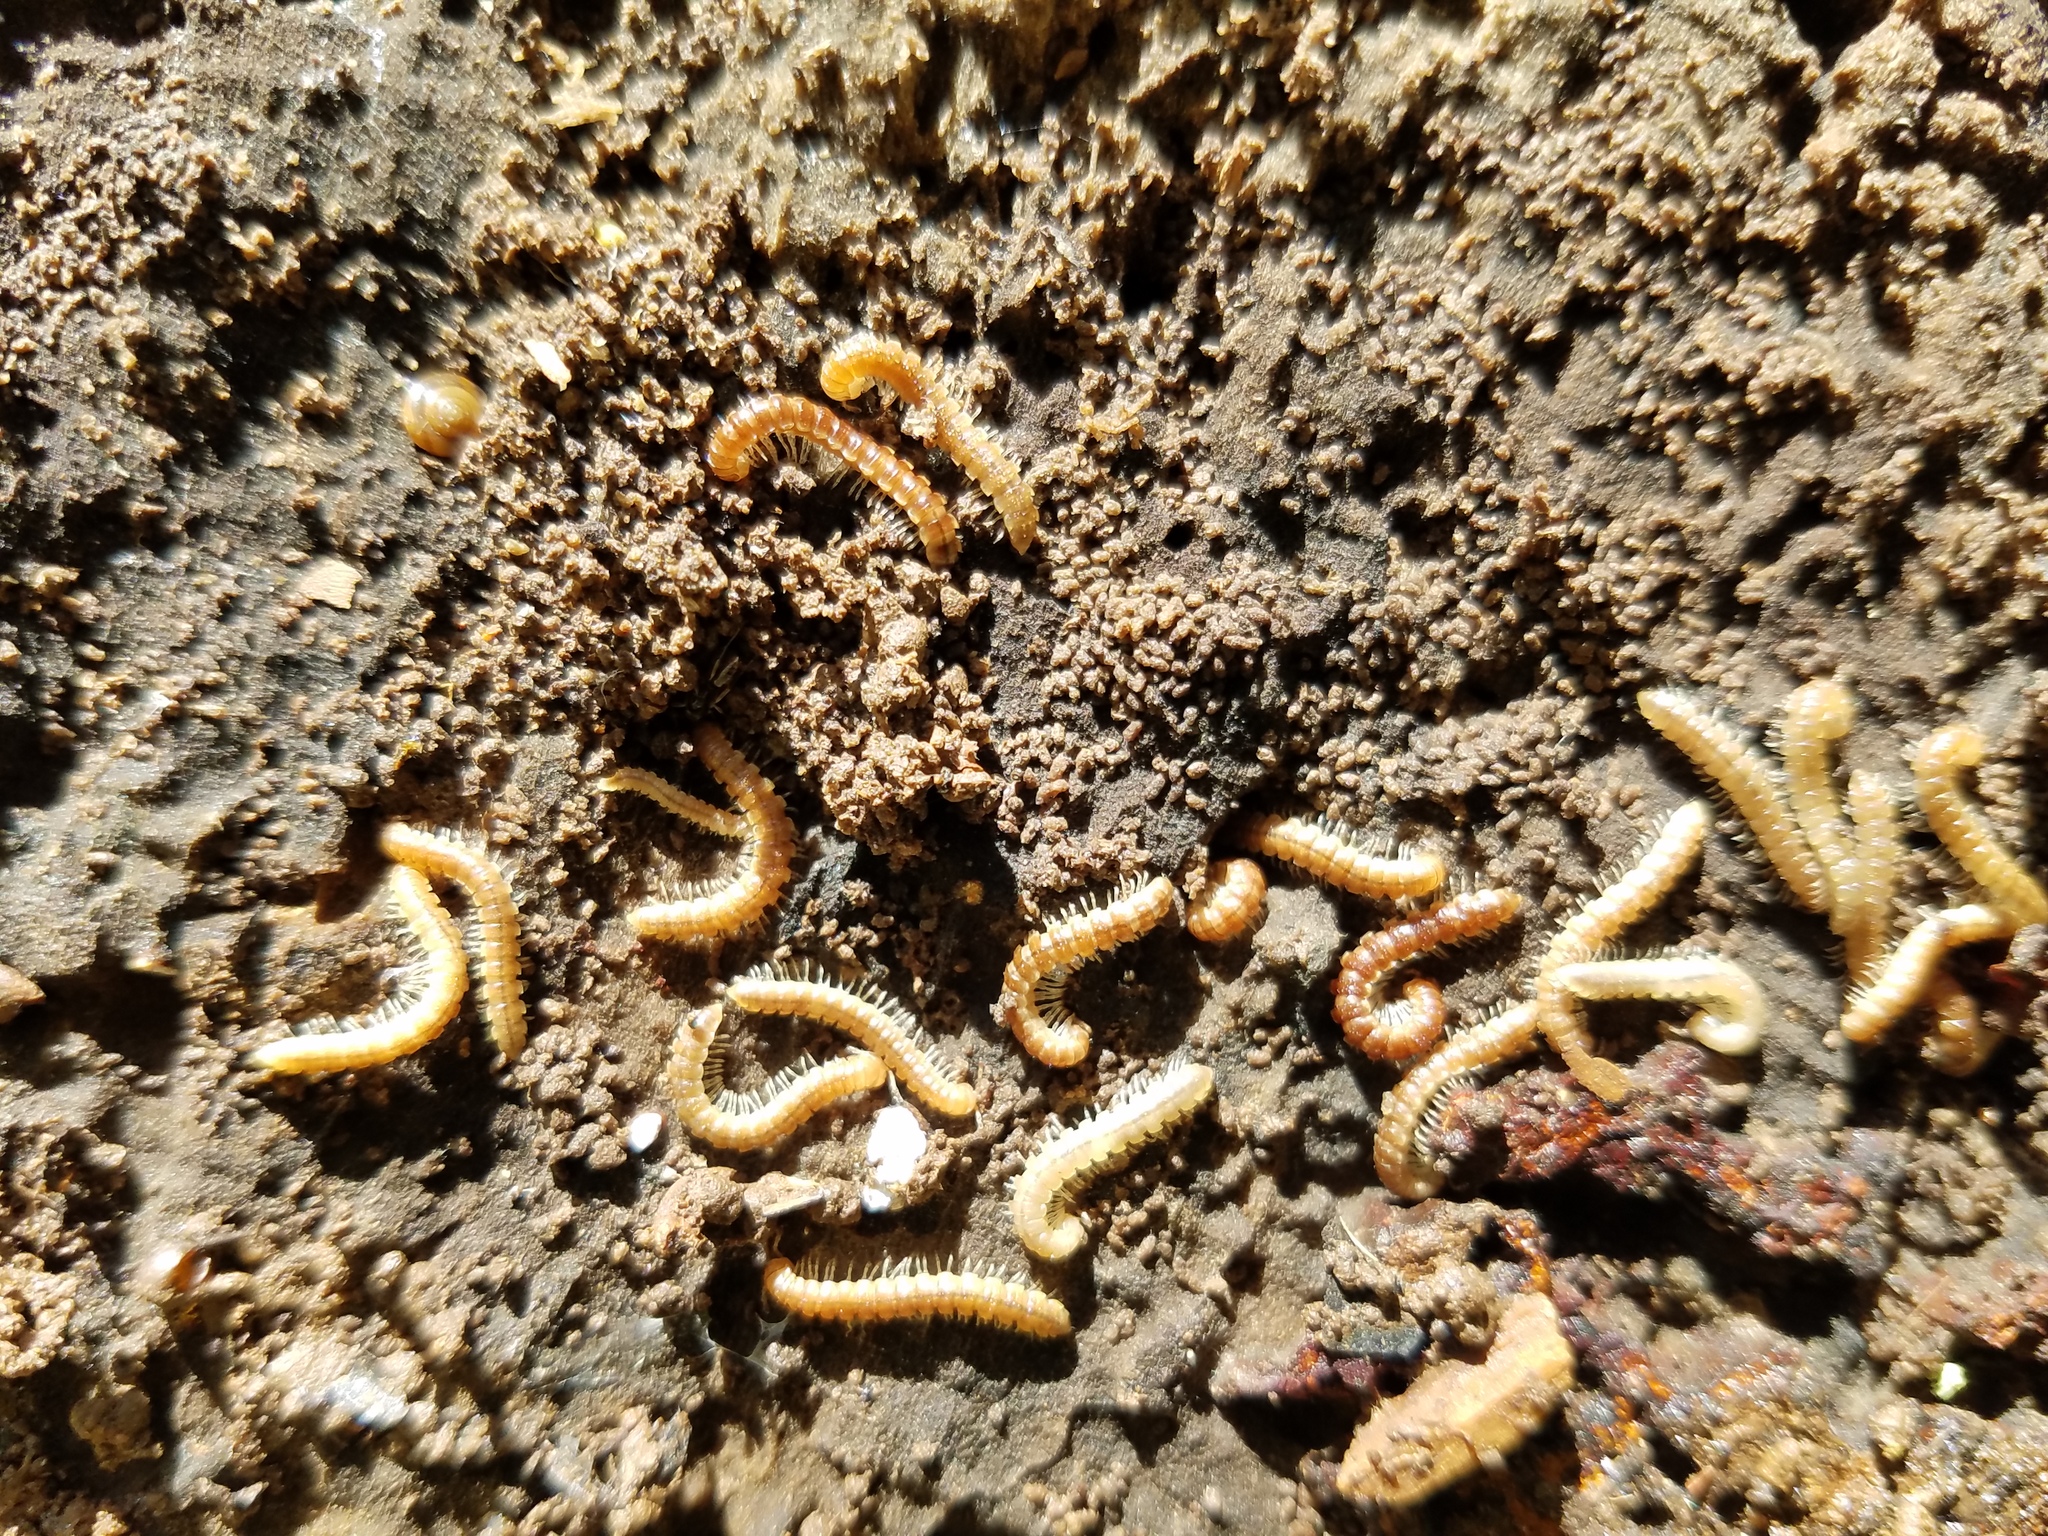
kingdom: Animalia
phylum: Arthropoda
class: Diplopoda
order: Polydesmida
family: Paradoxosomatidae
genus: Oxidus
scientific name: Oxidus gracilis
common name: Greenhouse millipede
